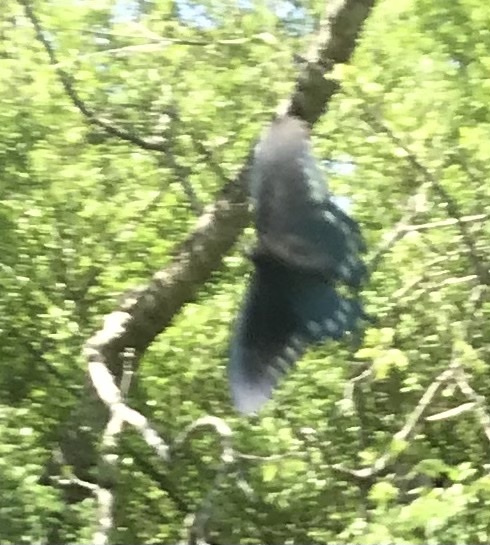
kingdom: Animalia
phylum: Arthropoda
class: Insecta
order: Lepidoptera
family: Papilionidae
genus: Battus
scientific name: Battus philenor
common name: Pipevine swallowtail
